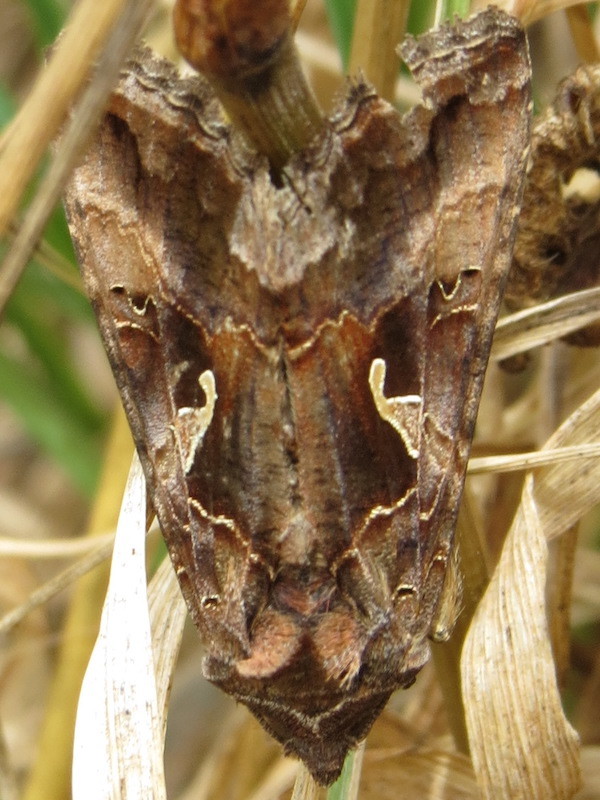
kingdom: Animalia
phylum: Arthropoda
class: Insecta
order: Lepidoptera
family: Noctuidae
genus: Autographa
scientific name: Autographa gamma
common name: Silver y
